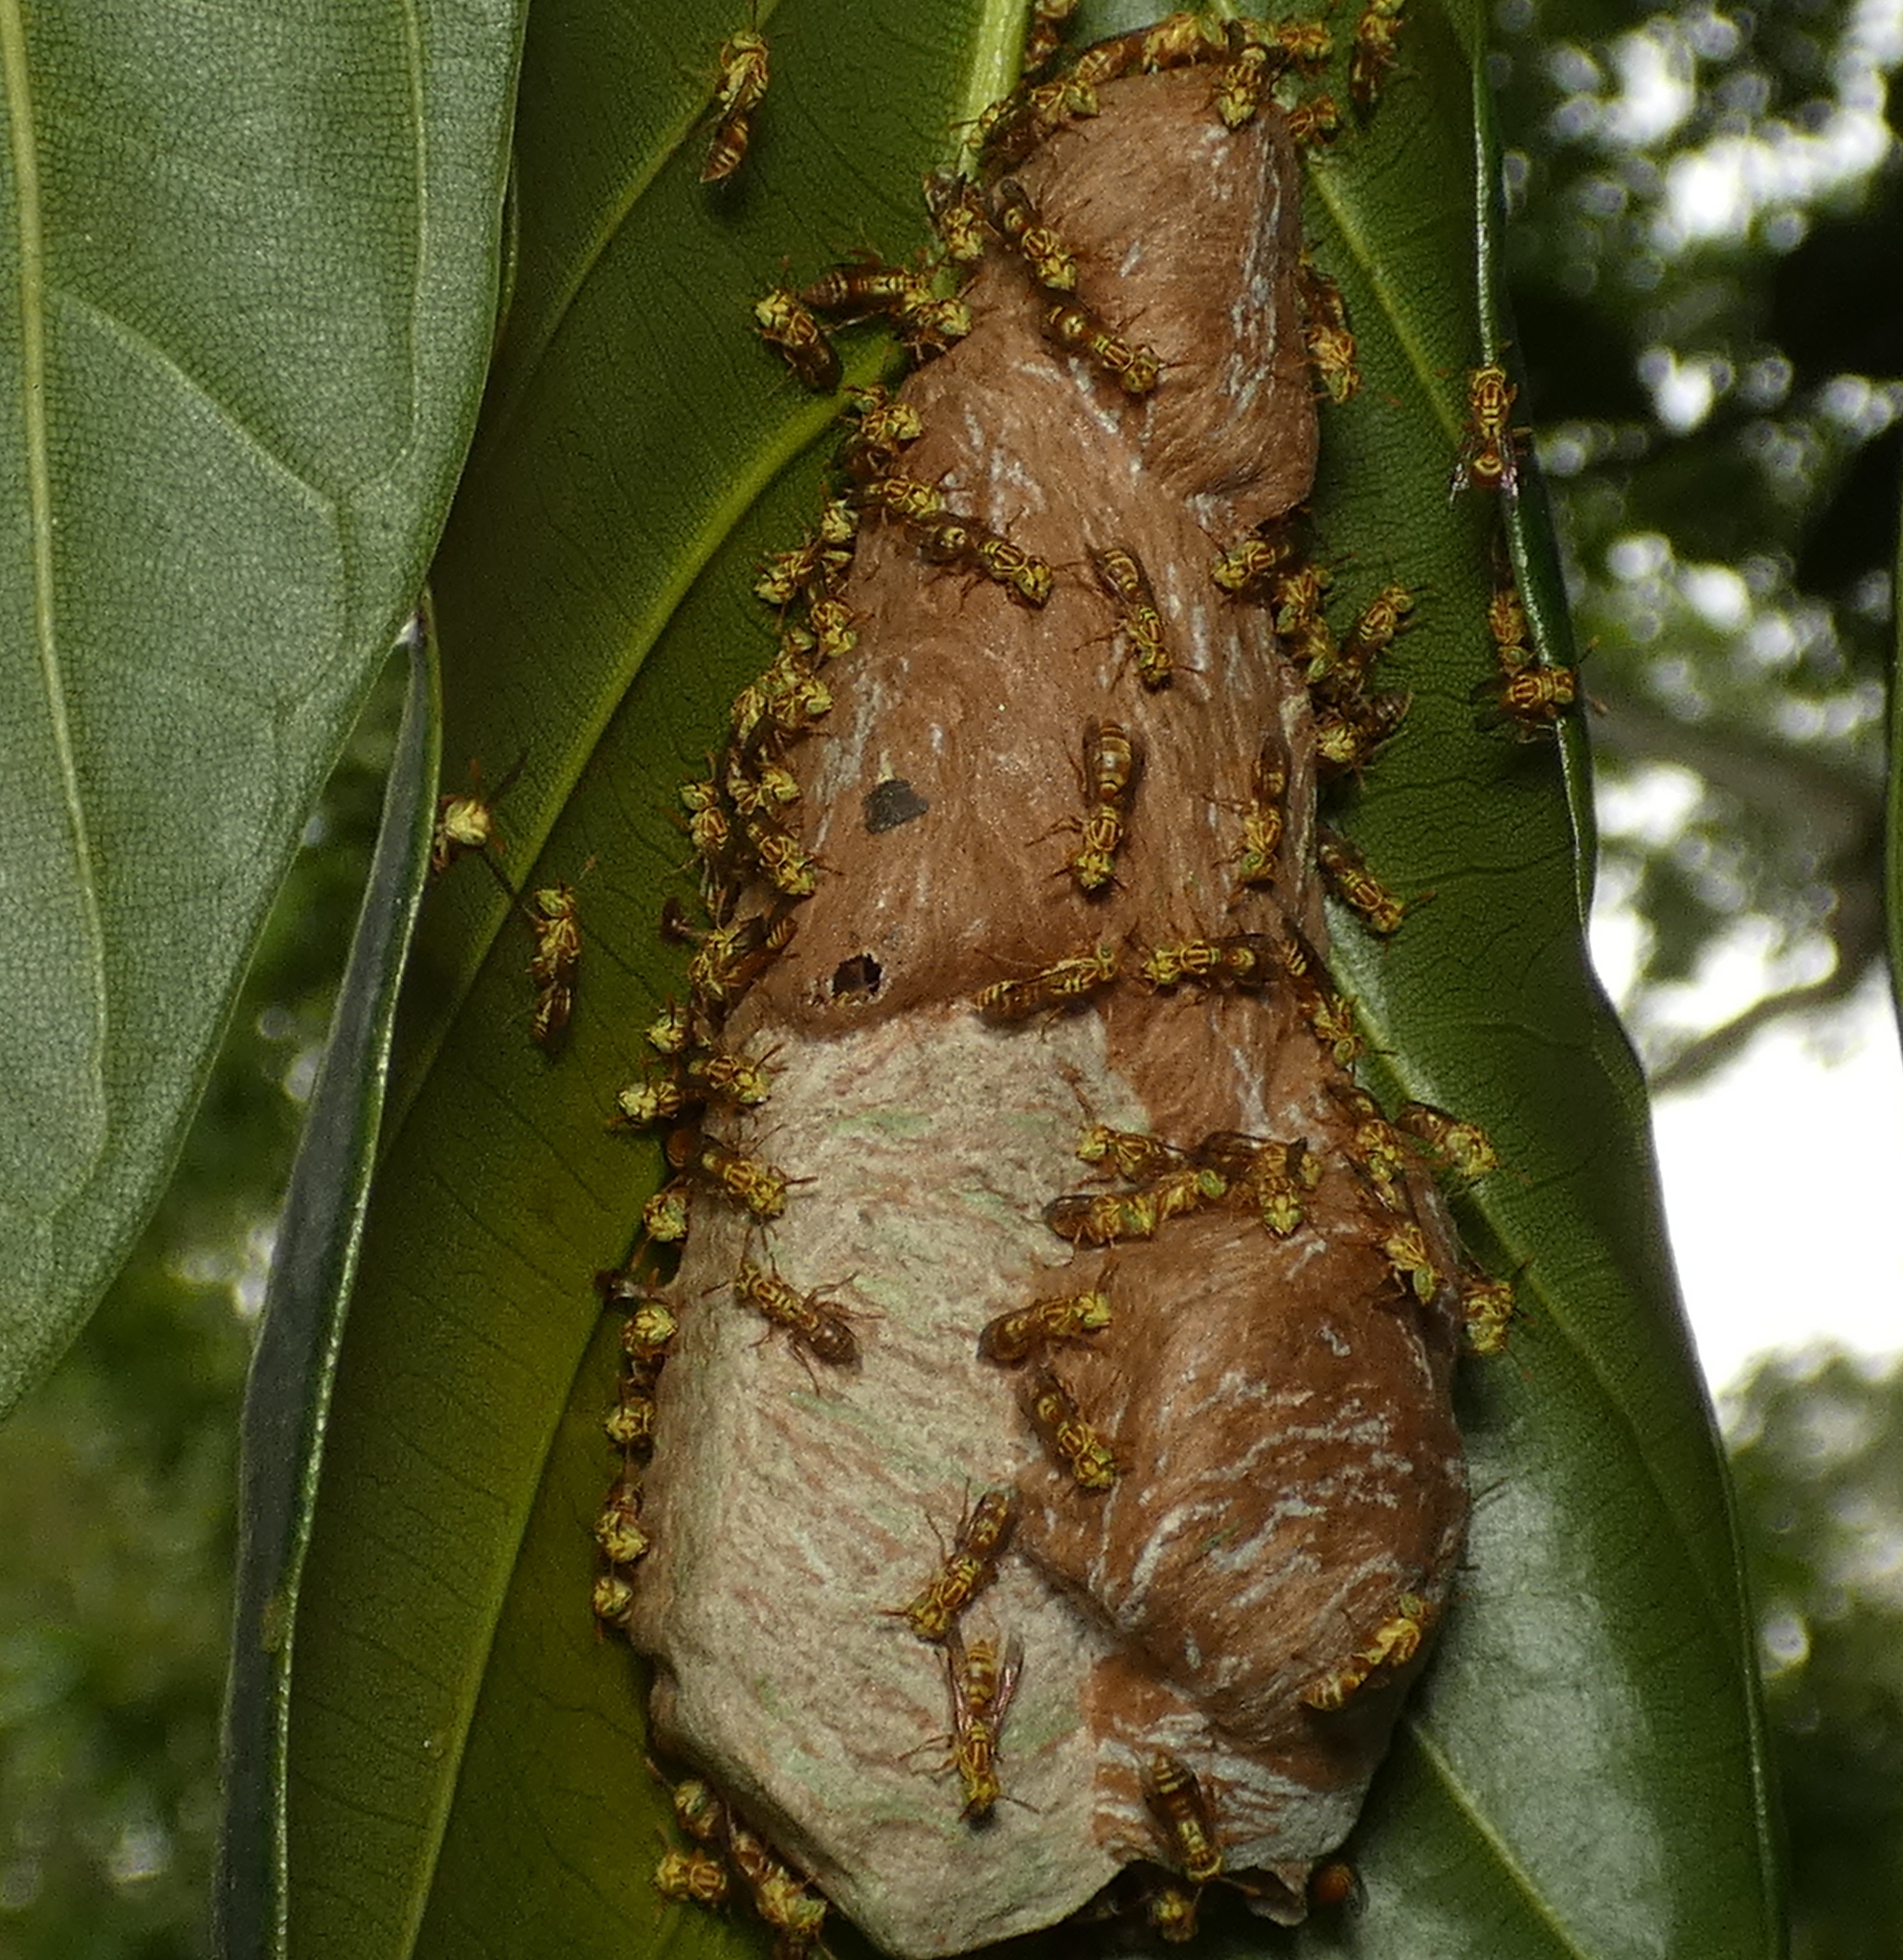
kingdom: Animalia
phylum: Arthropoda
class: Insecta
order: Hymenoptera
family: Vespidae
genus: Protopolybia
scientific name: Protopolybia potiguara
